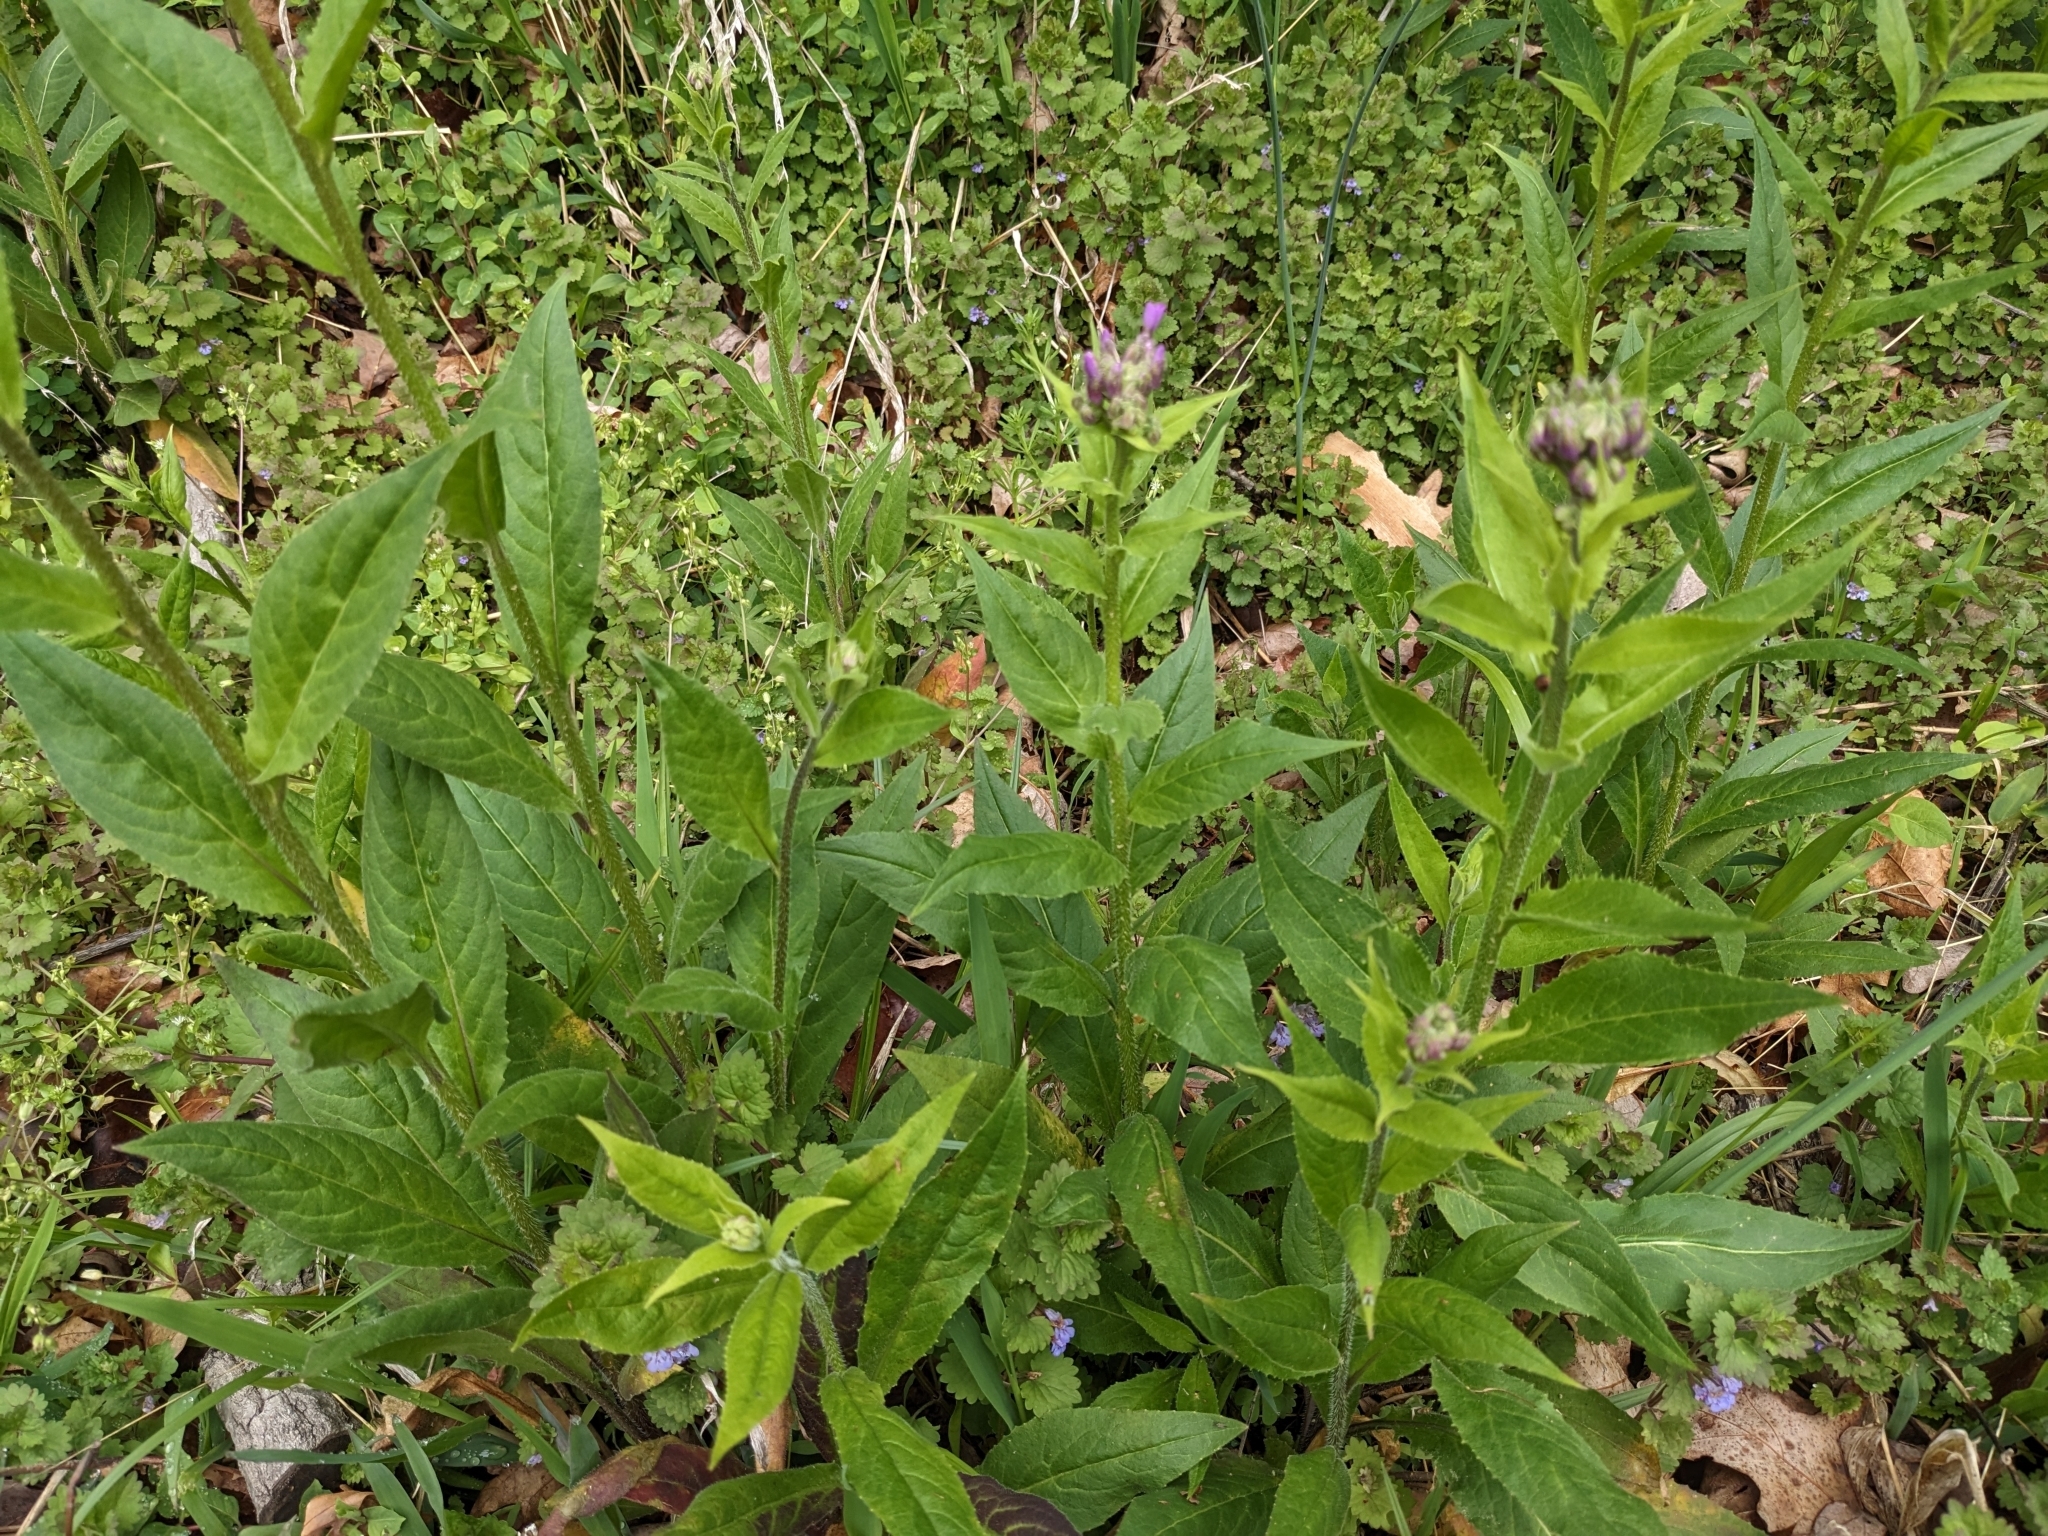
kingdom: Plantae
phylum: Tracheophyta
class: Magnoliopsida
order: Brassicales
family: Brassicaceae
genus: Hesperis
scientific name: Hesperis matronalis
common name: Dame's-violet
